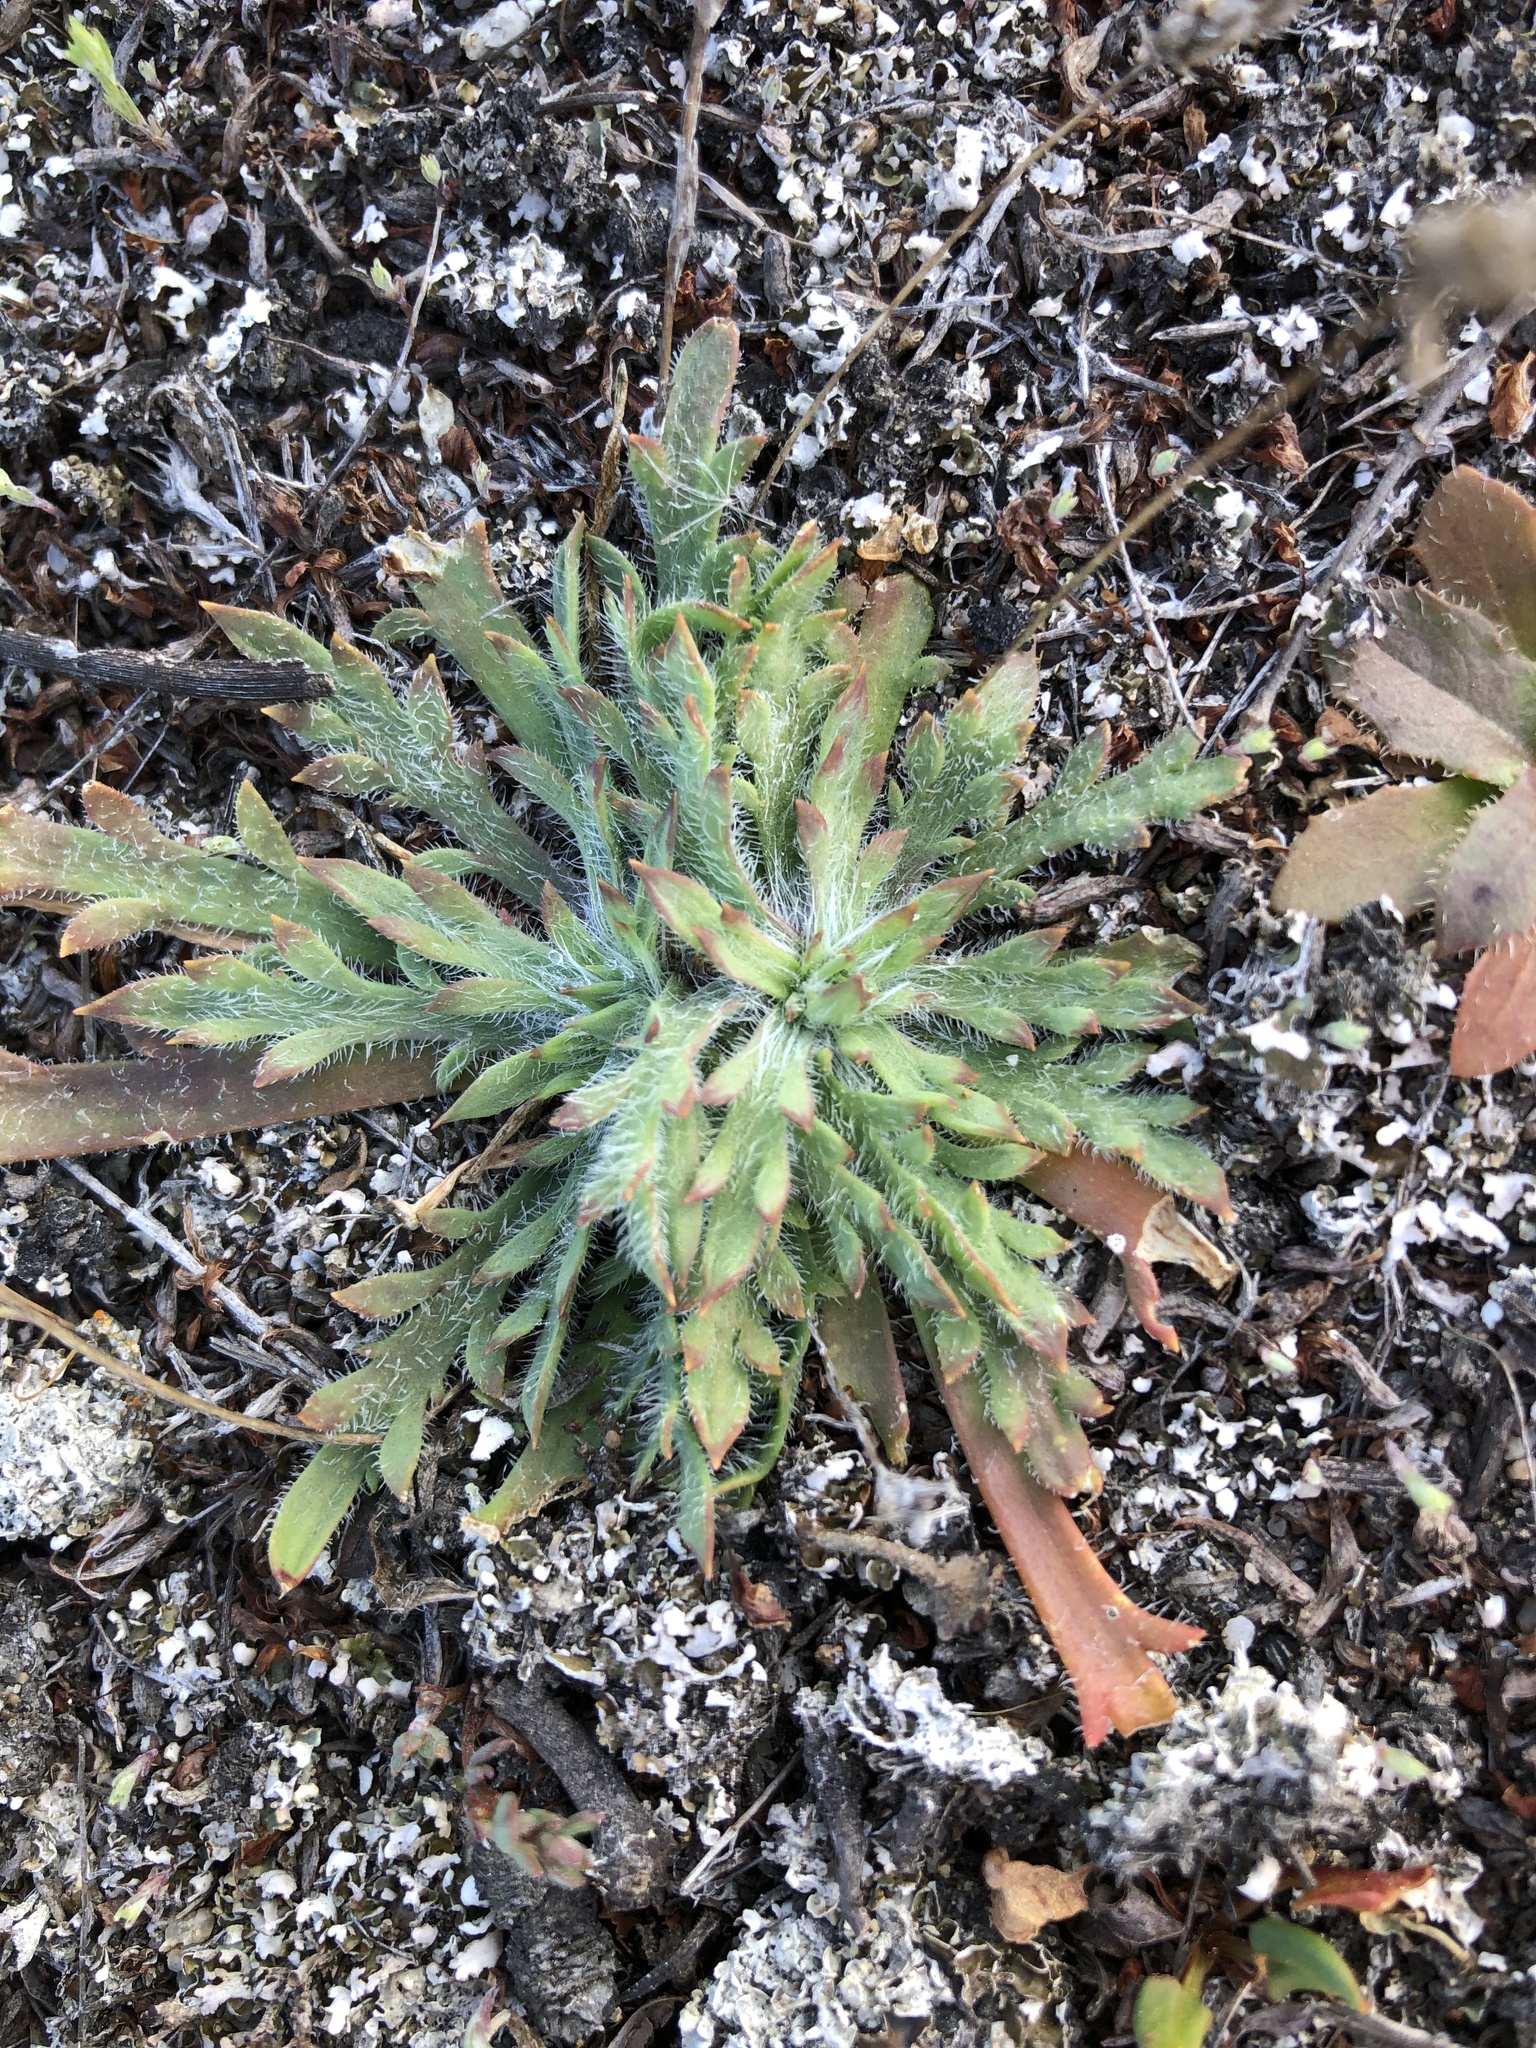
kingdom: Plantae
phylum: Tracheophyta
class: Magnoliopsida
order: Lamiales
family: Plantaginaceae
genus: Plantago
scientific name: Plantago coronopus
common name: Buck's-horn plantain
